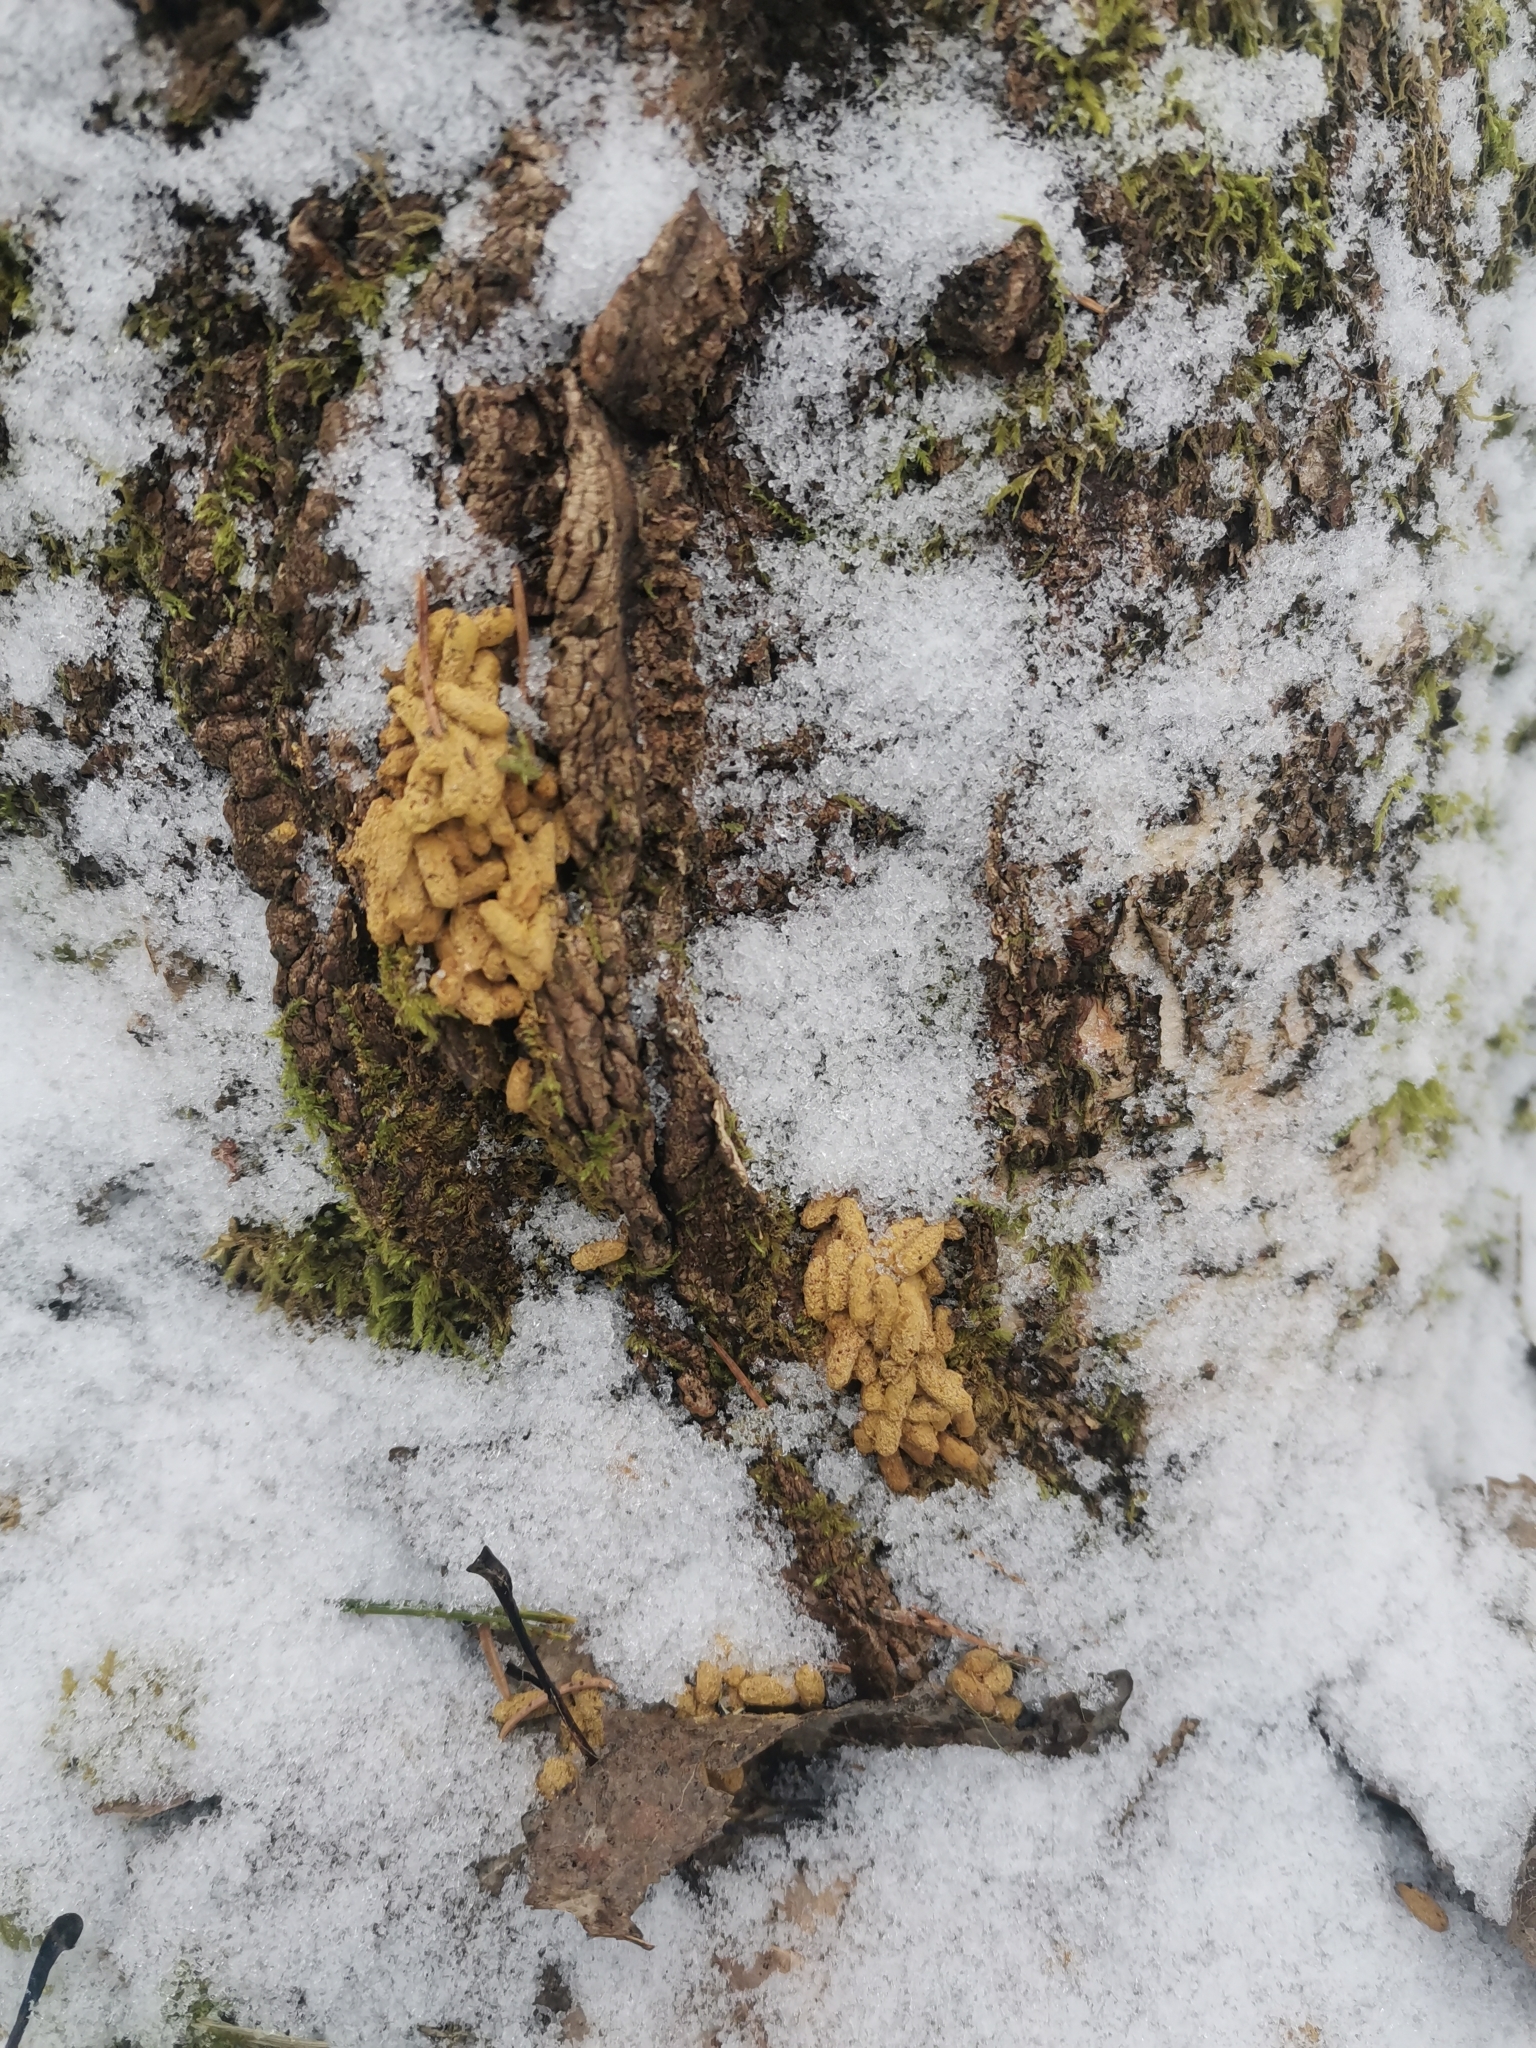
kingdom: Animalia
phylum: Chordata
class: Mammalia
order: Rodentia
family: Sciuridae
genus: Pteromys
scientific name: Pteromys volans
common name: Siberian flying squirrel
